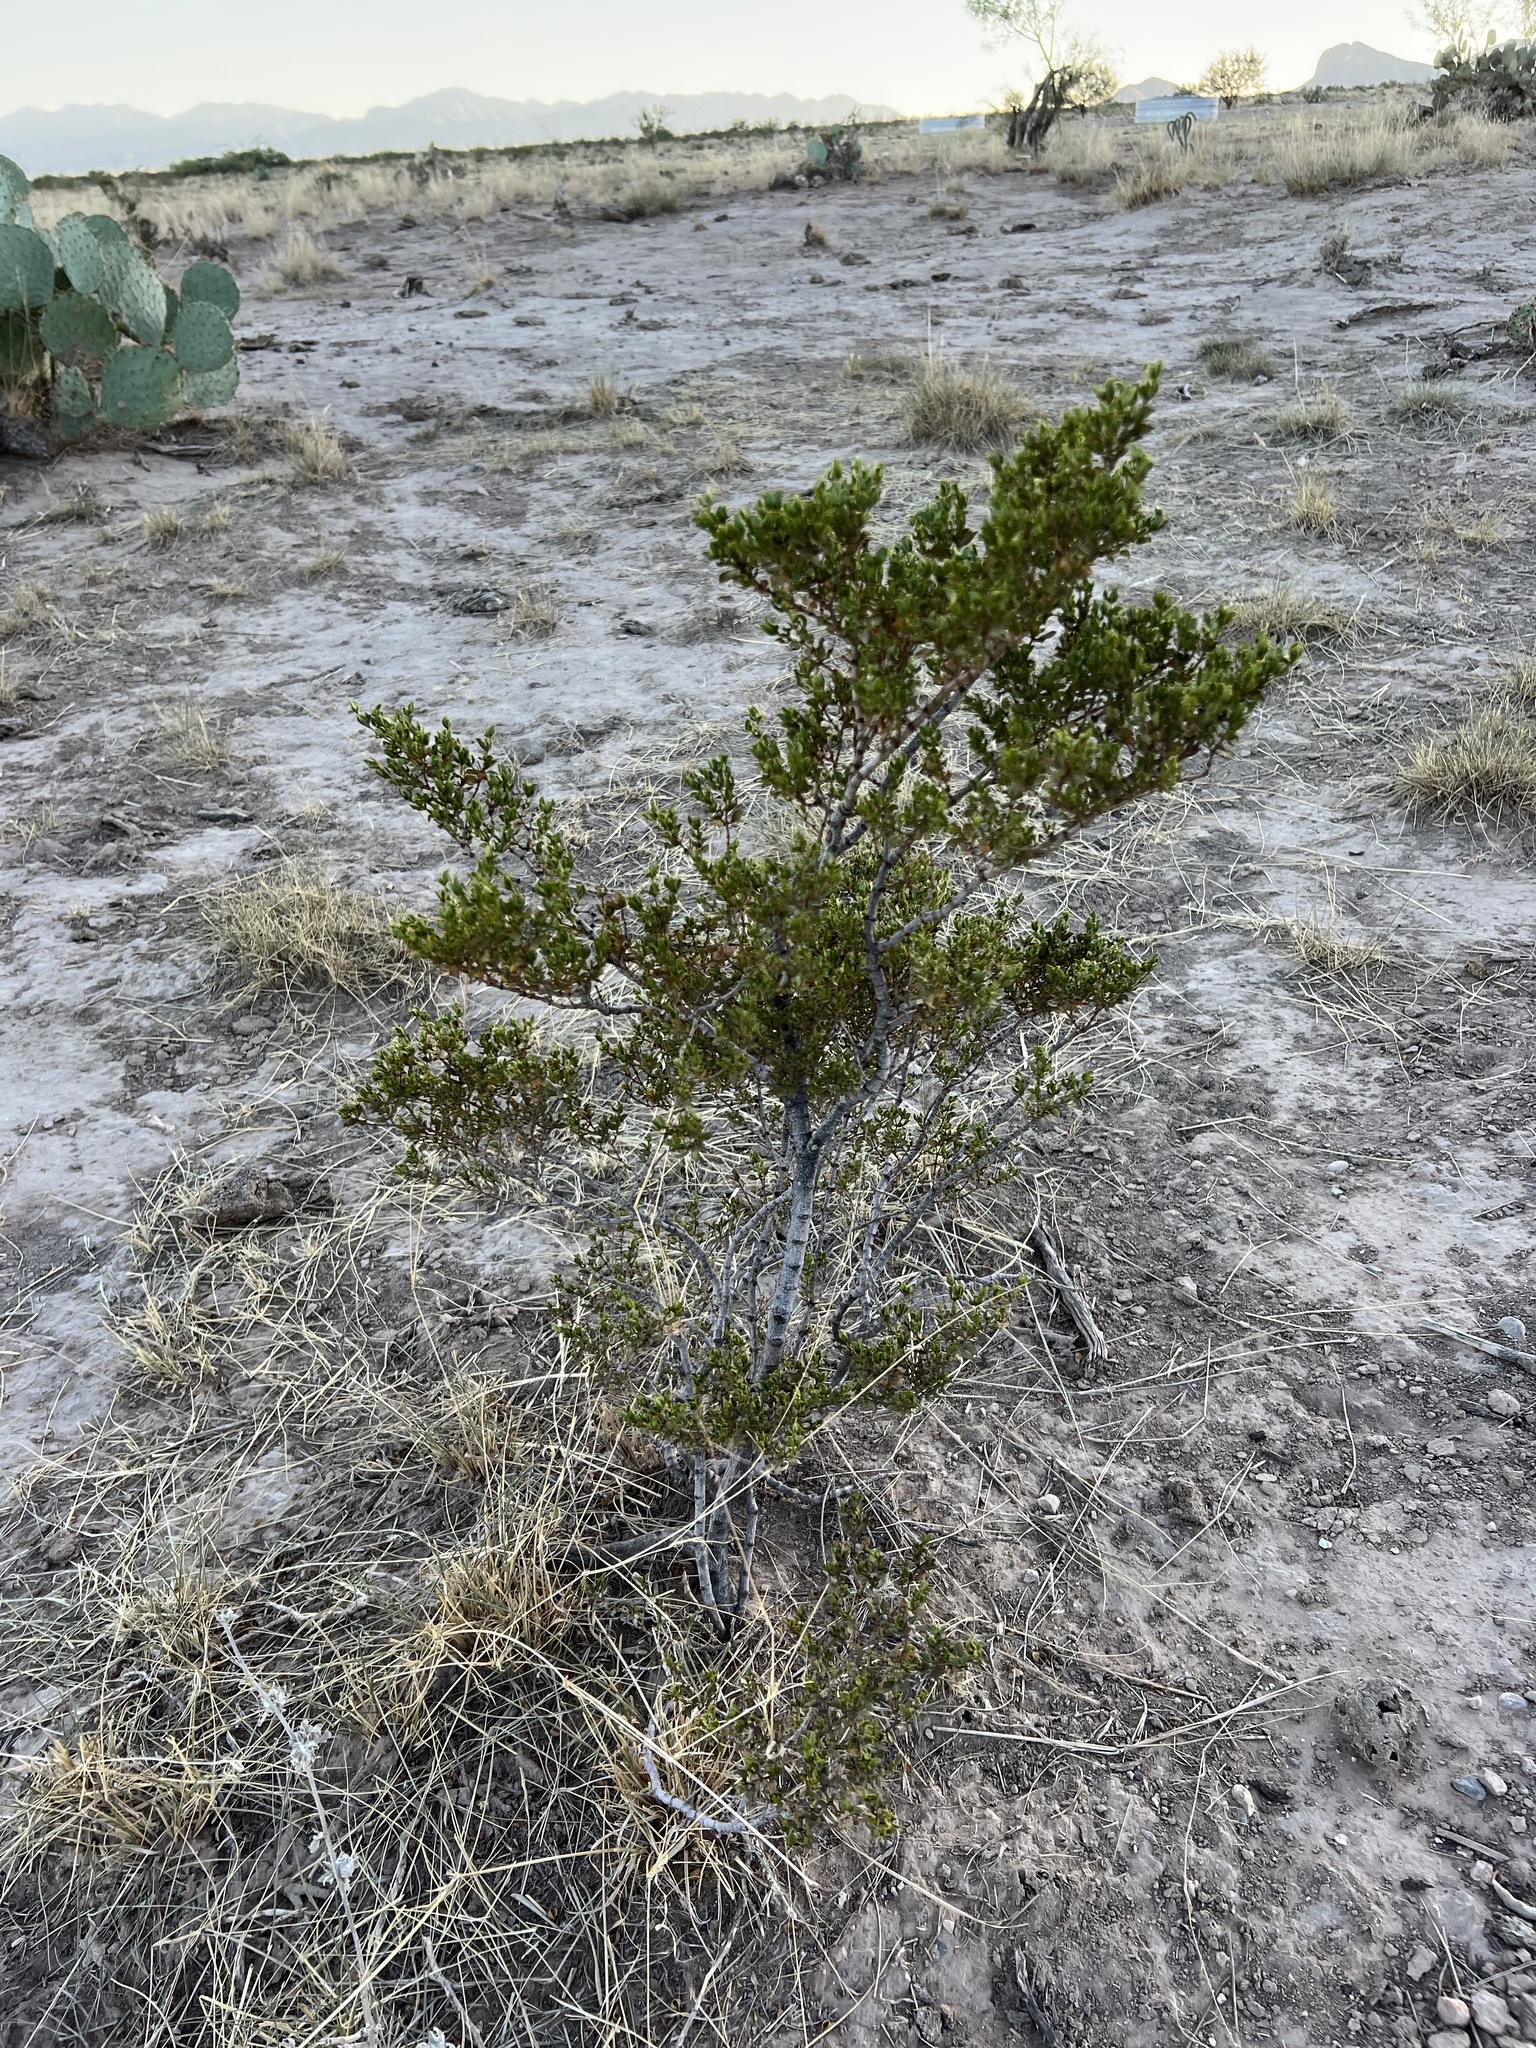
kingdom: Plantae
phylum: Tracheophyta
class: Magnoliopsida
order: Zygophyllales
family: Zygophyllaceae
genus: Larrea
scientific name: Larrea tridentata
